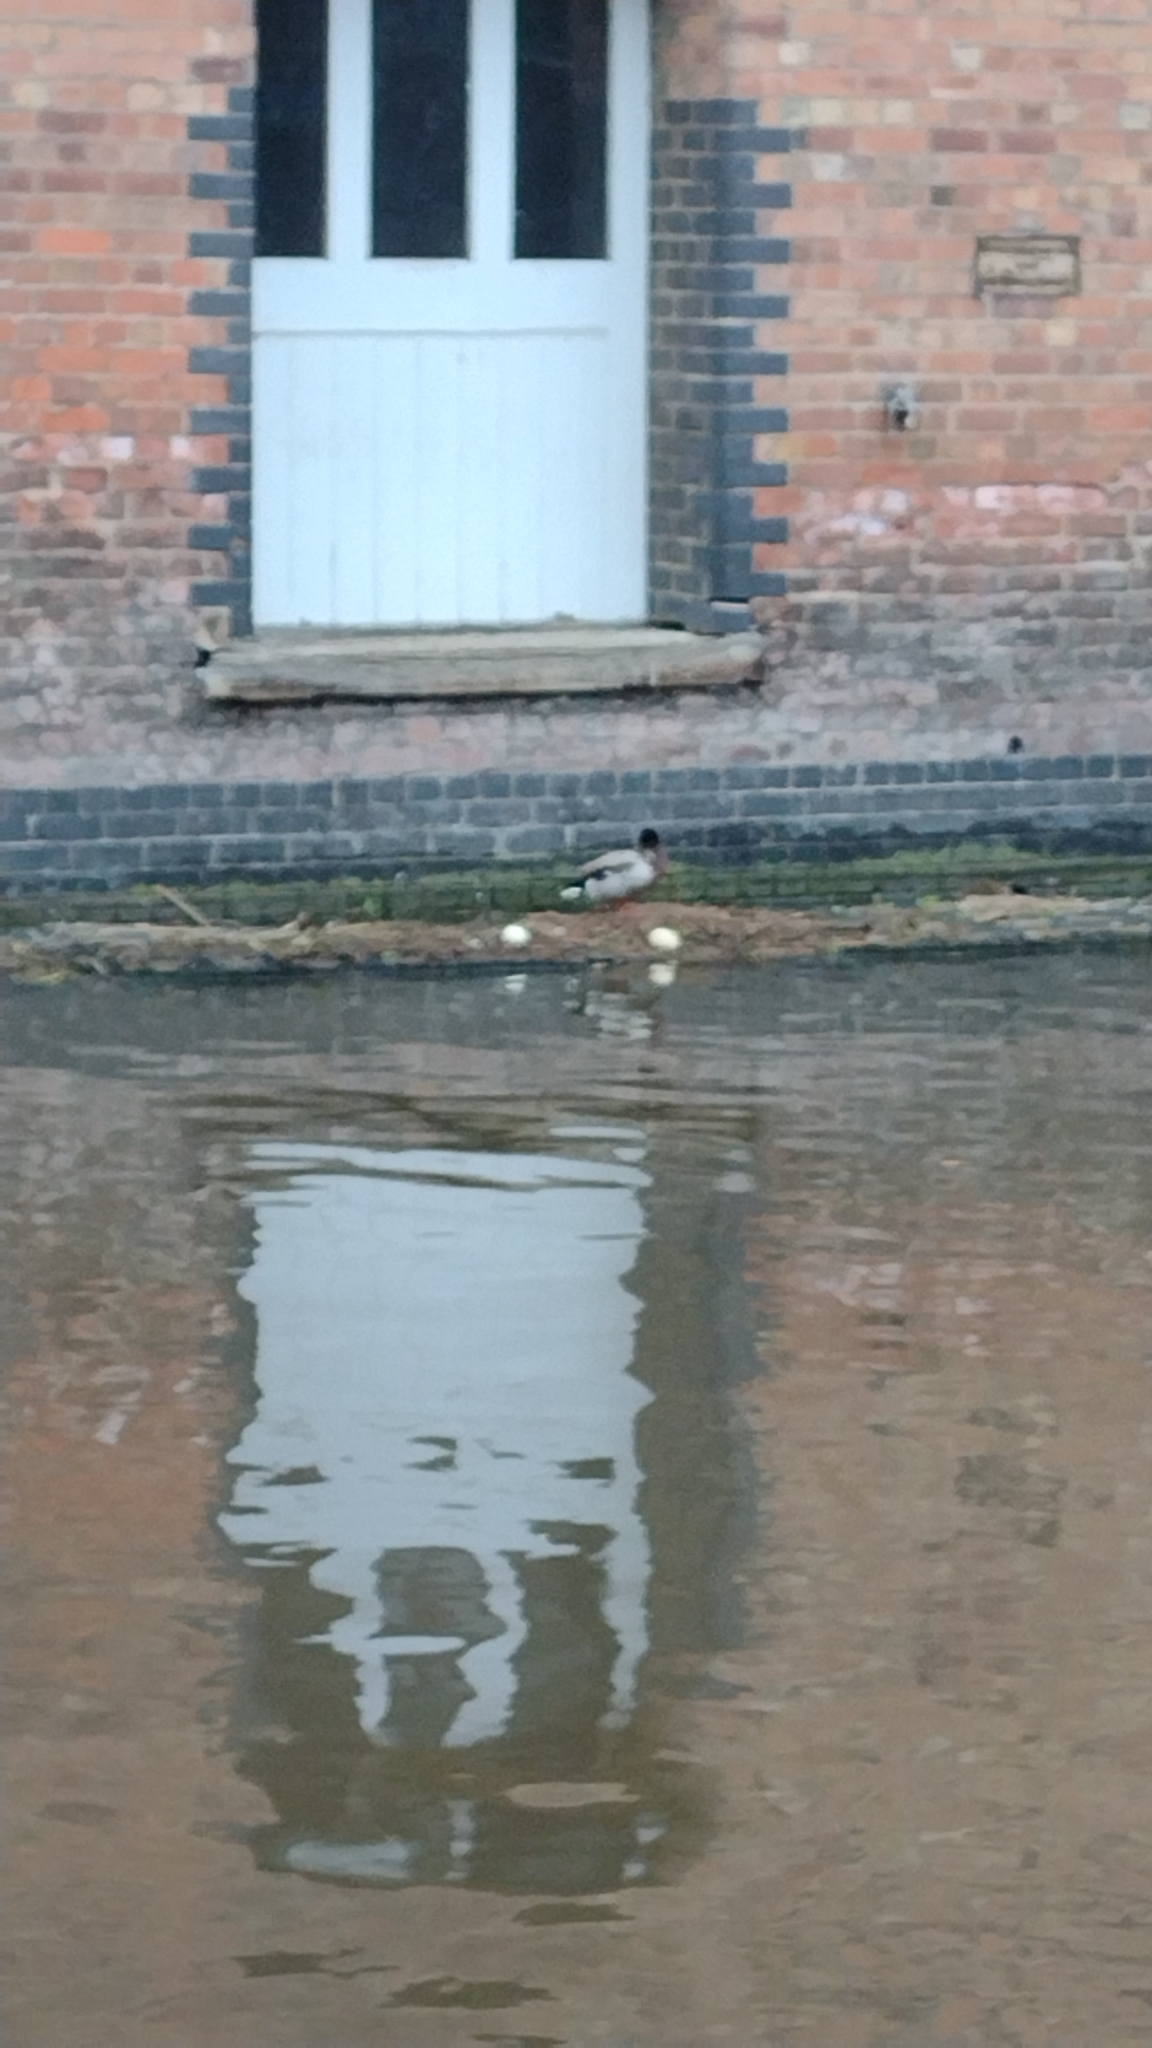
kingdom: Animalia
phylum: Chordata
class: Aves
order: Anseriformes
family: Anatidae
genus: Anas
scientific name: Anas platyrhynchos
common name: Mallard
